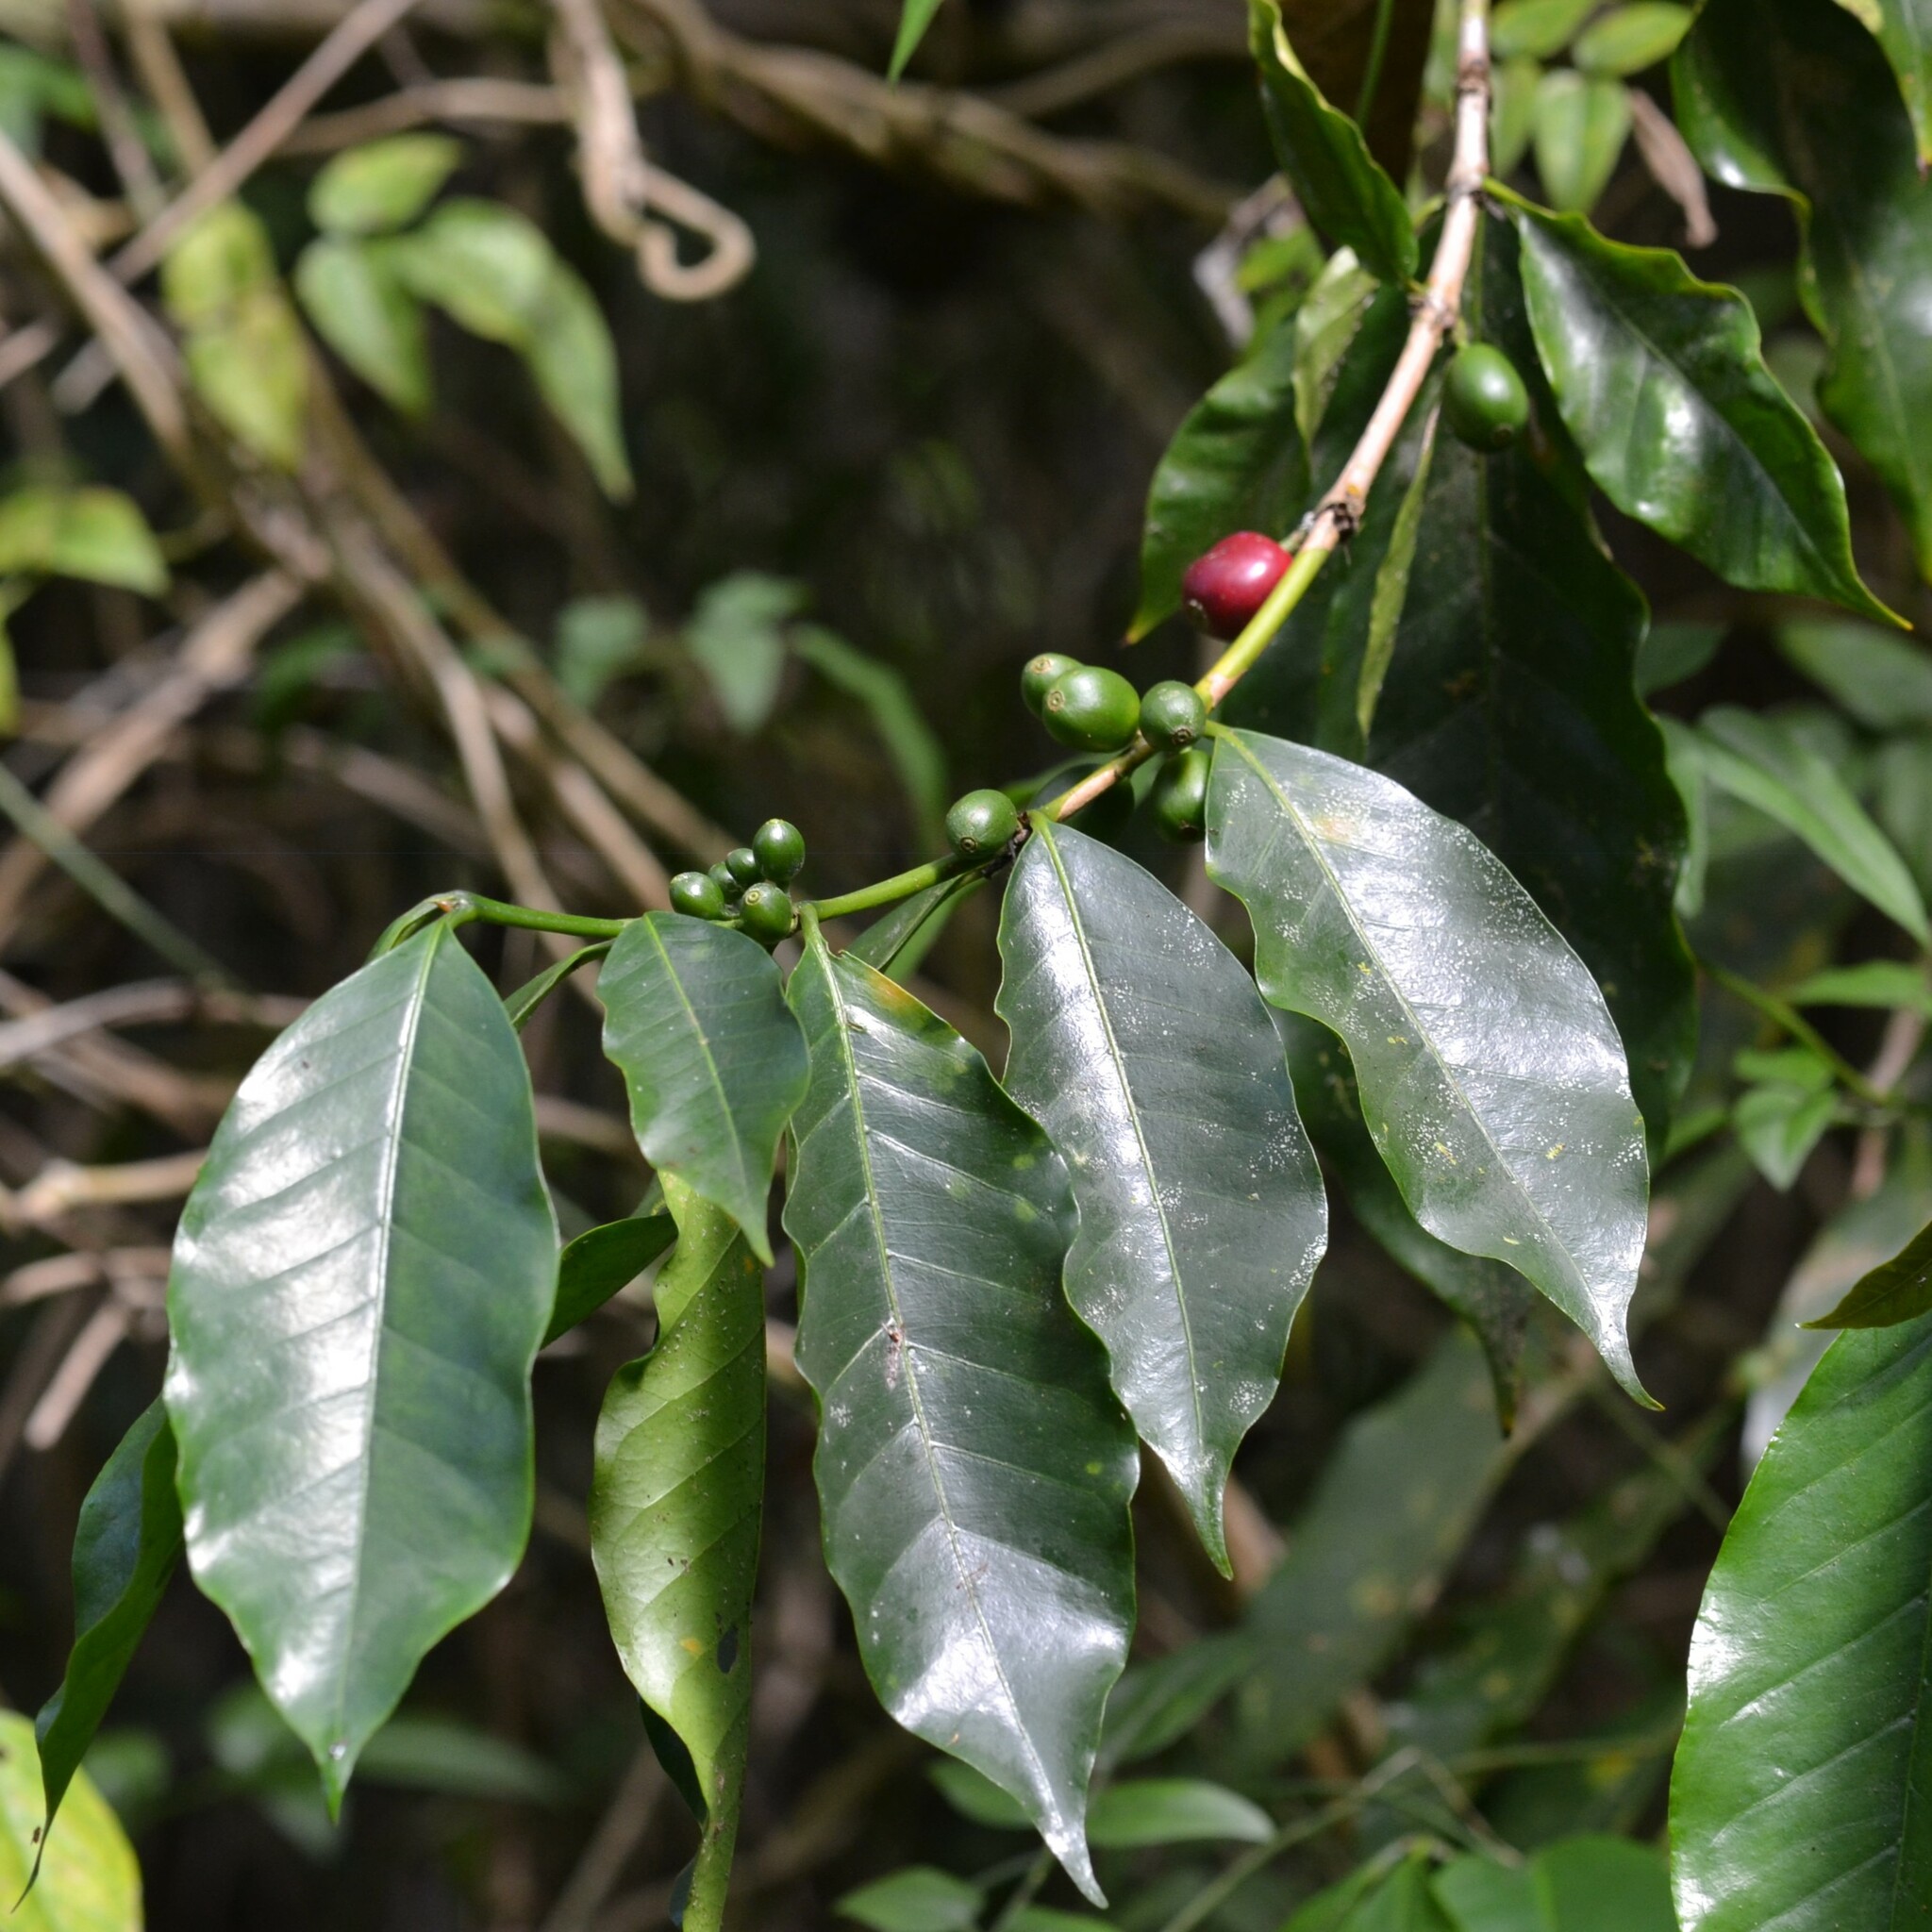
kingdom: Plantae
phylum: Tracheophyta
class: Magnoliopsida
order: Gentianales
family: Rubiaceae
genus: Coffea
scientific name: Coffea arabica
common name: Coffee
